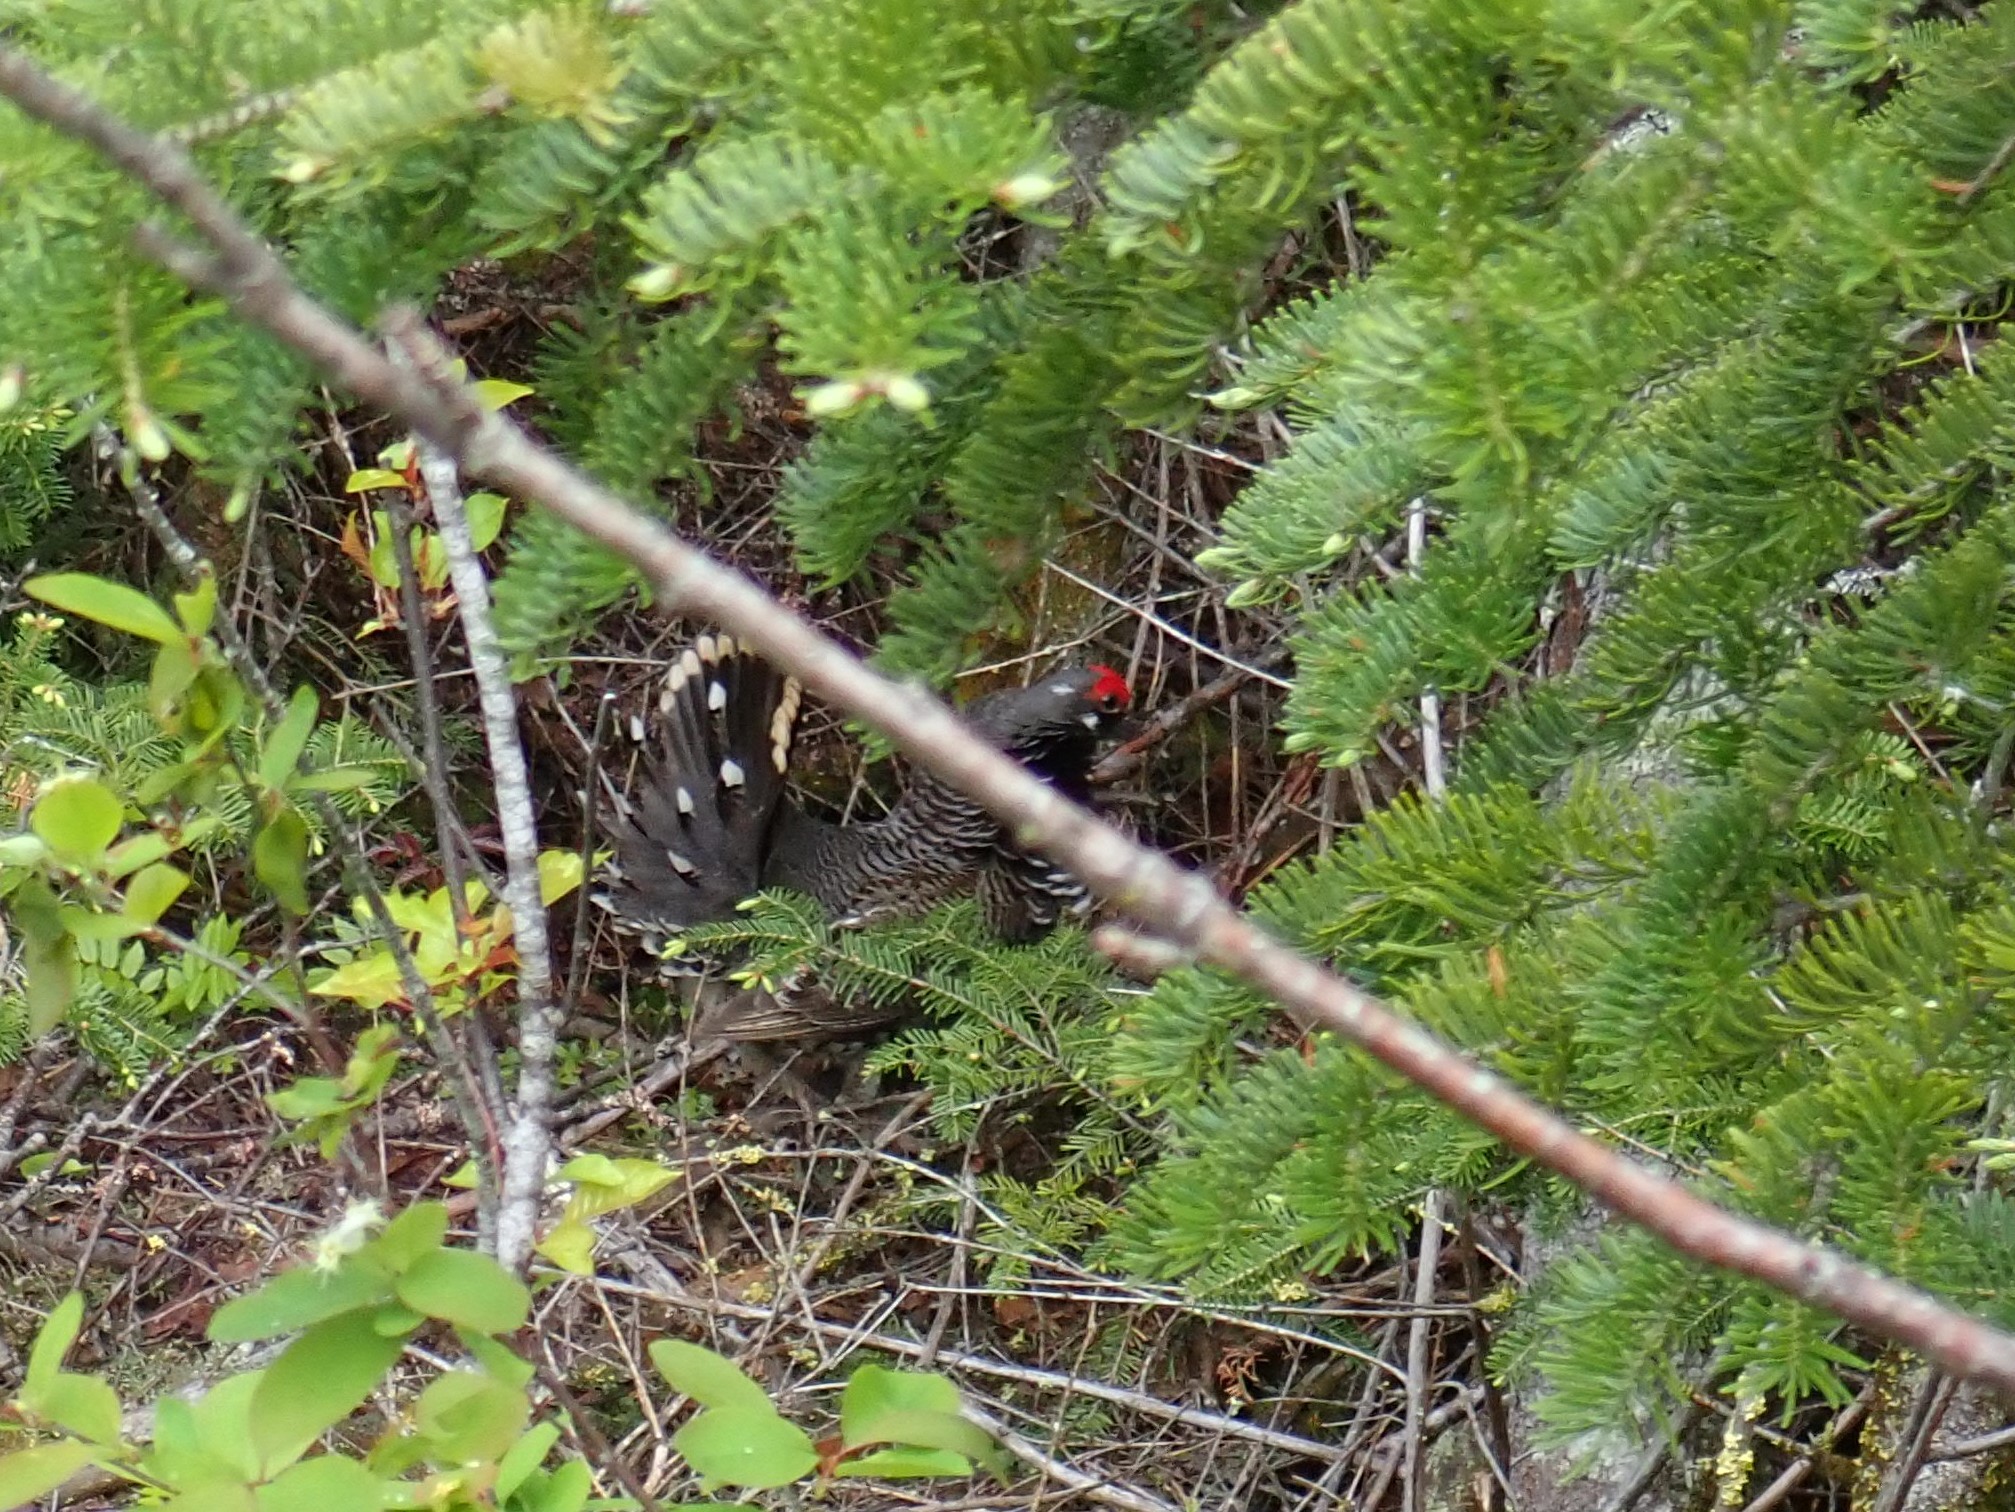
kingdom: Animalia
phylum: Chordata
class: Aves
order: Galliformes
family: Phasianidae
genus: Canachites
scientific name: Canachites canadensis
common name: Spruce grouse
